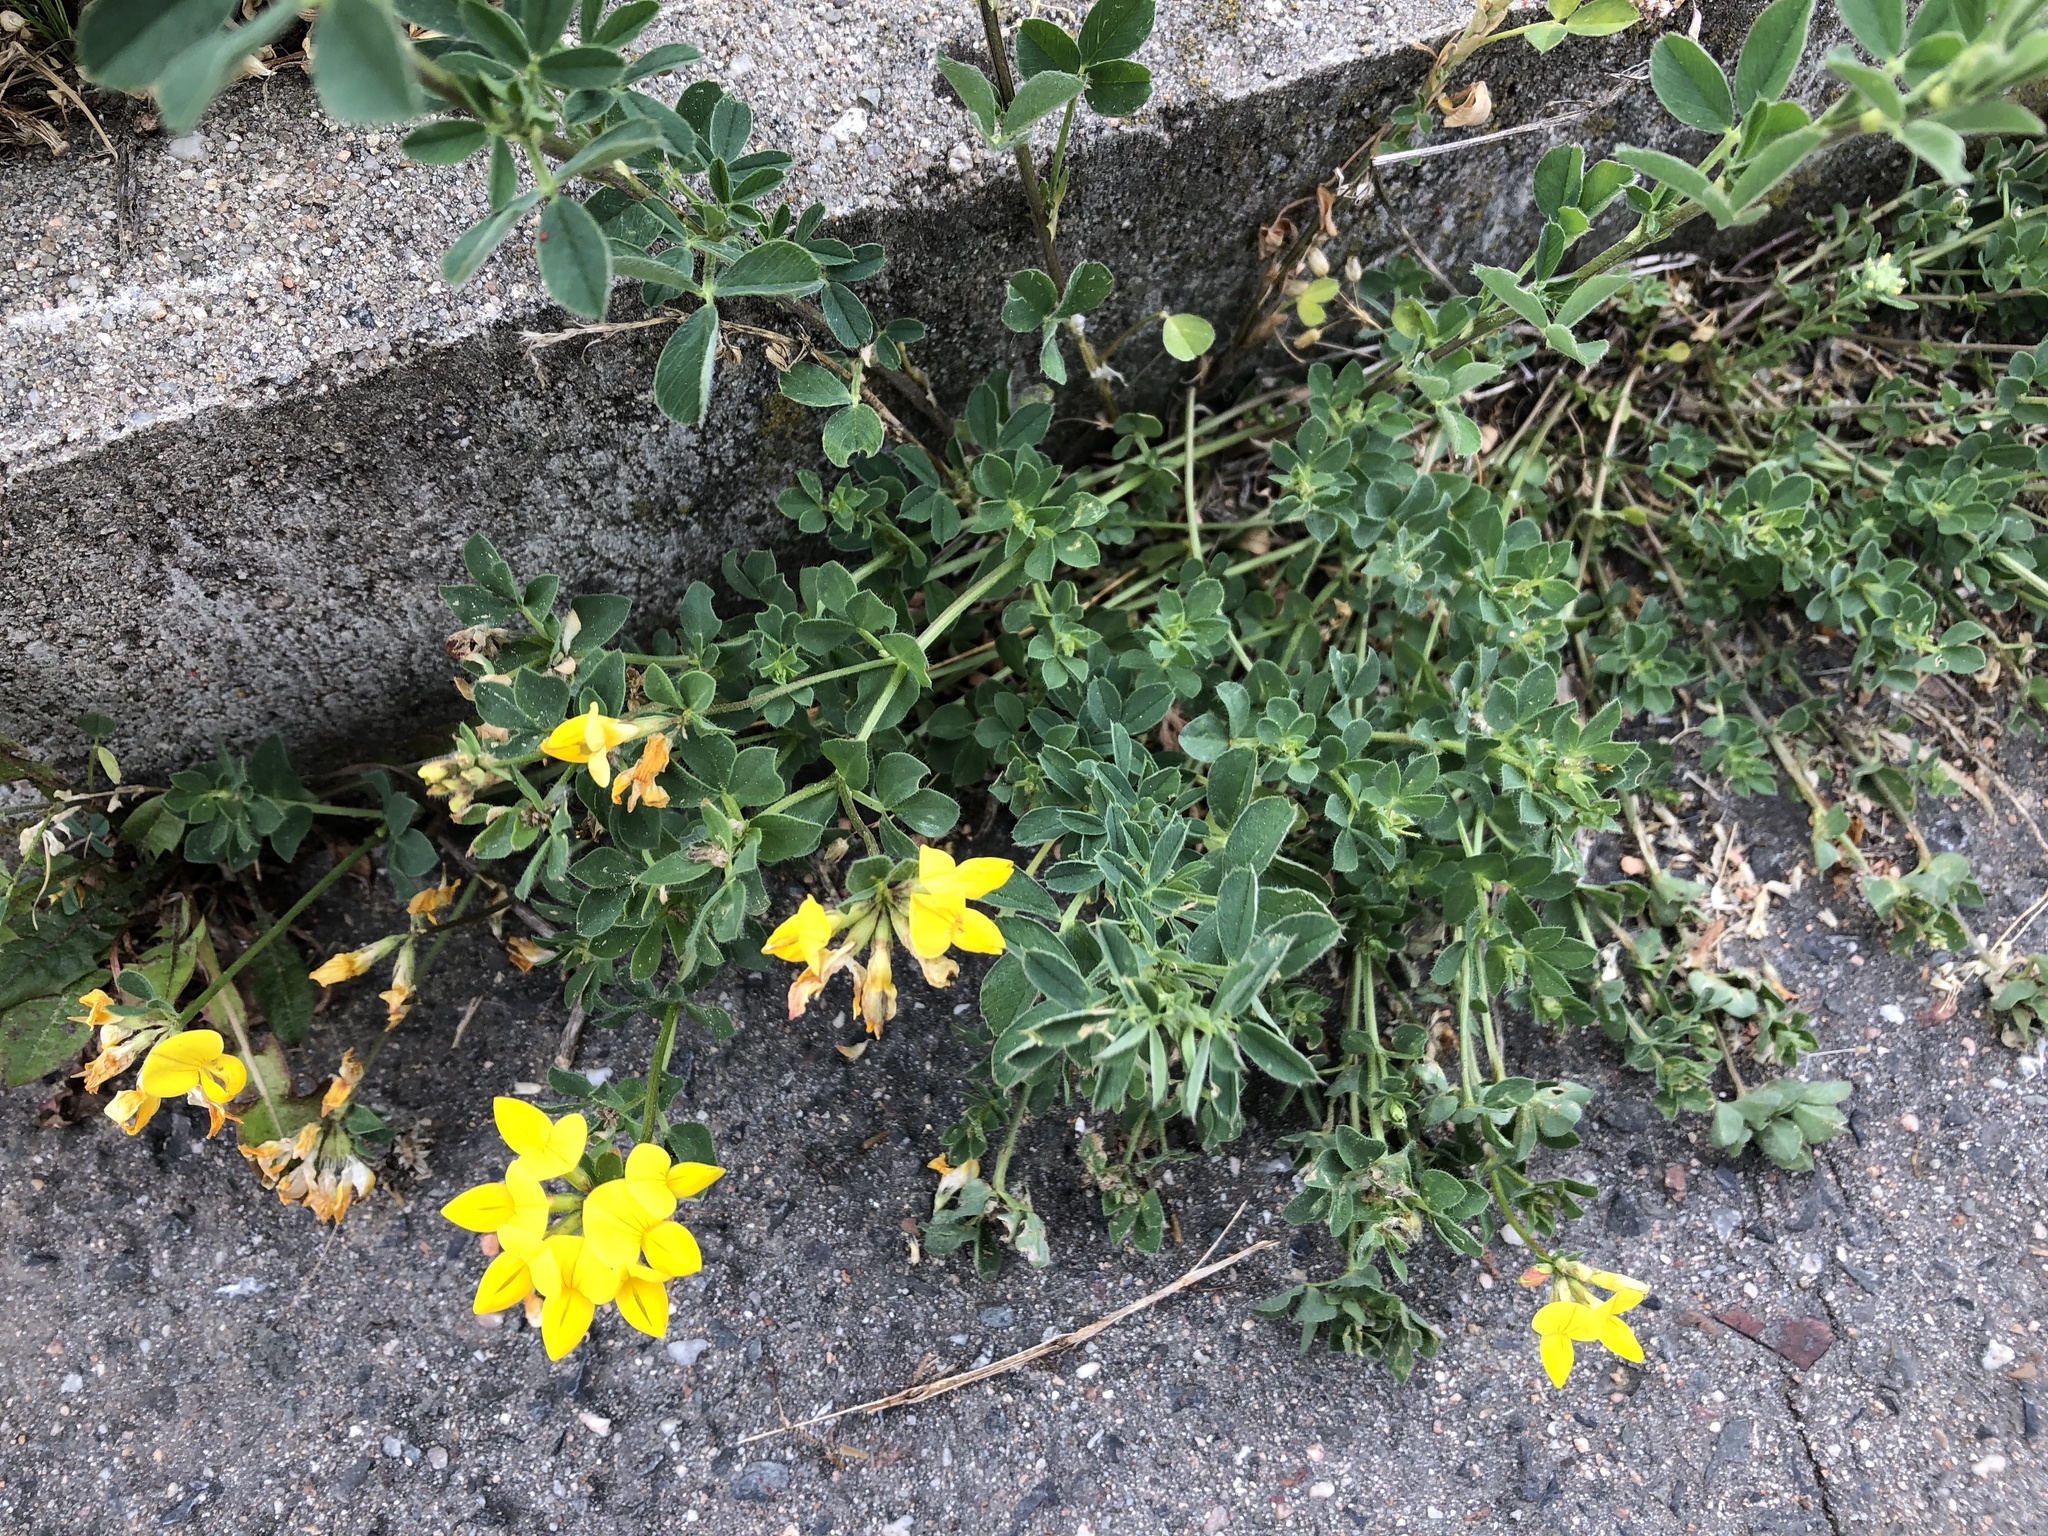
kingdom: Plantae
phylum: Tracheophyta
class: Magnoliopsida
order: Fabales
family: Fabaceae
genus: Lotus
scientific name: Lotus corniculatus
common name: Common bird's-foot-trefoil
